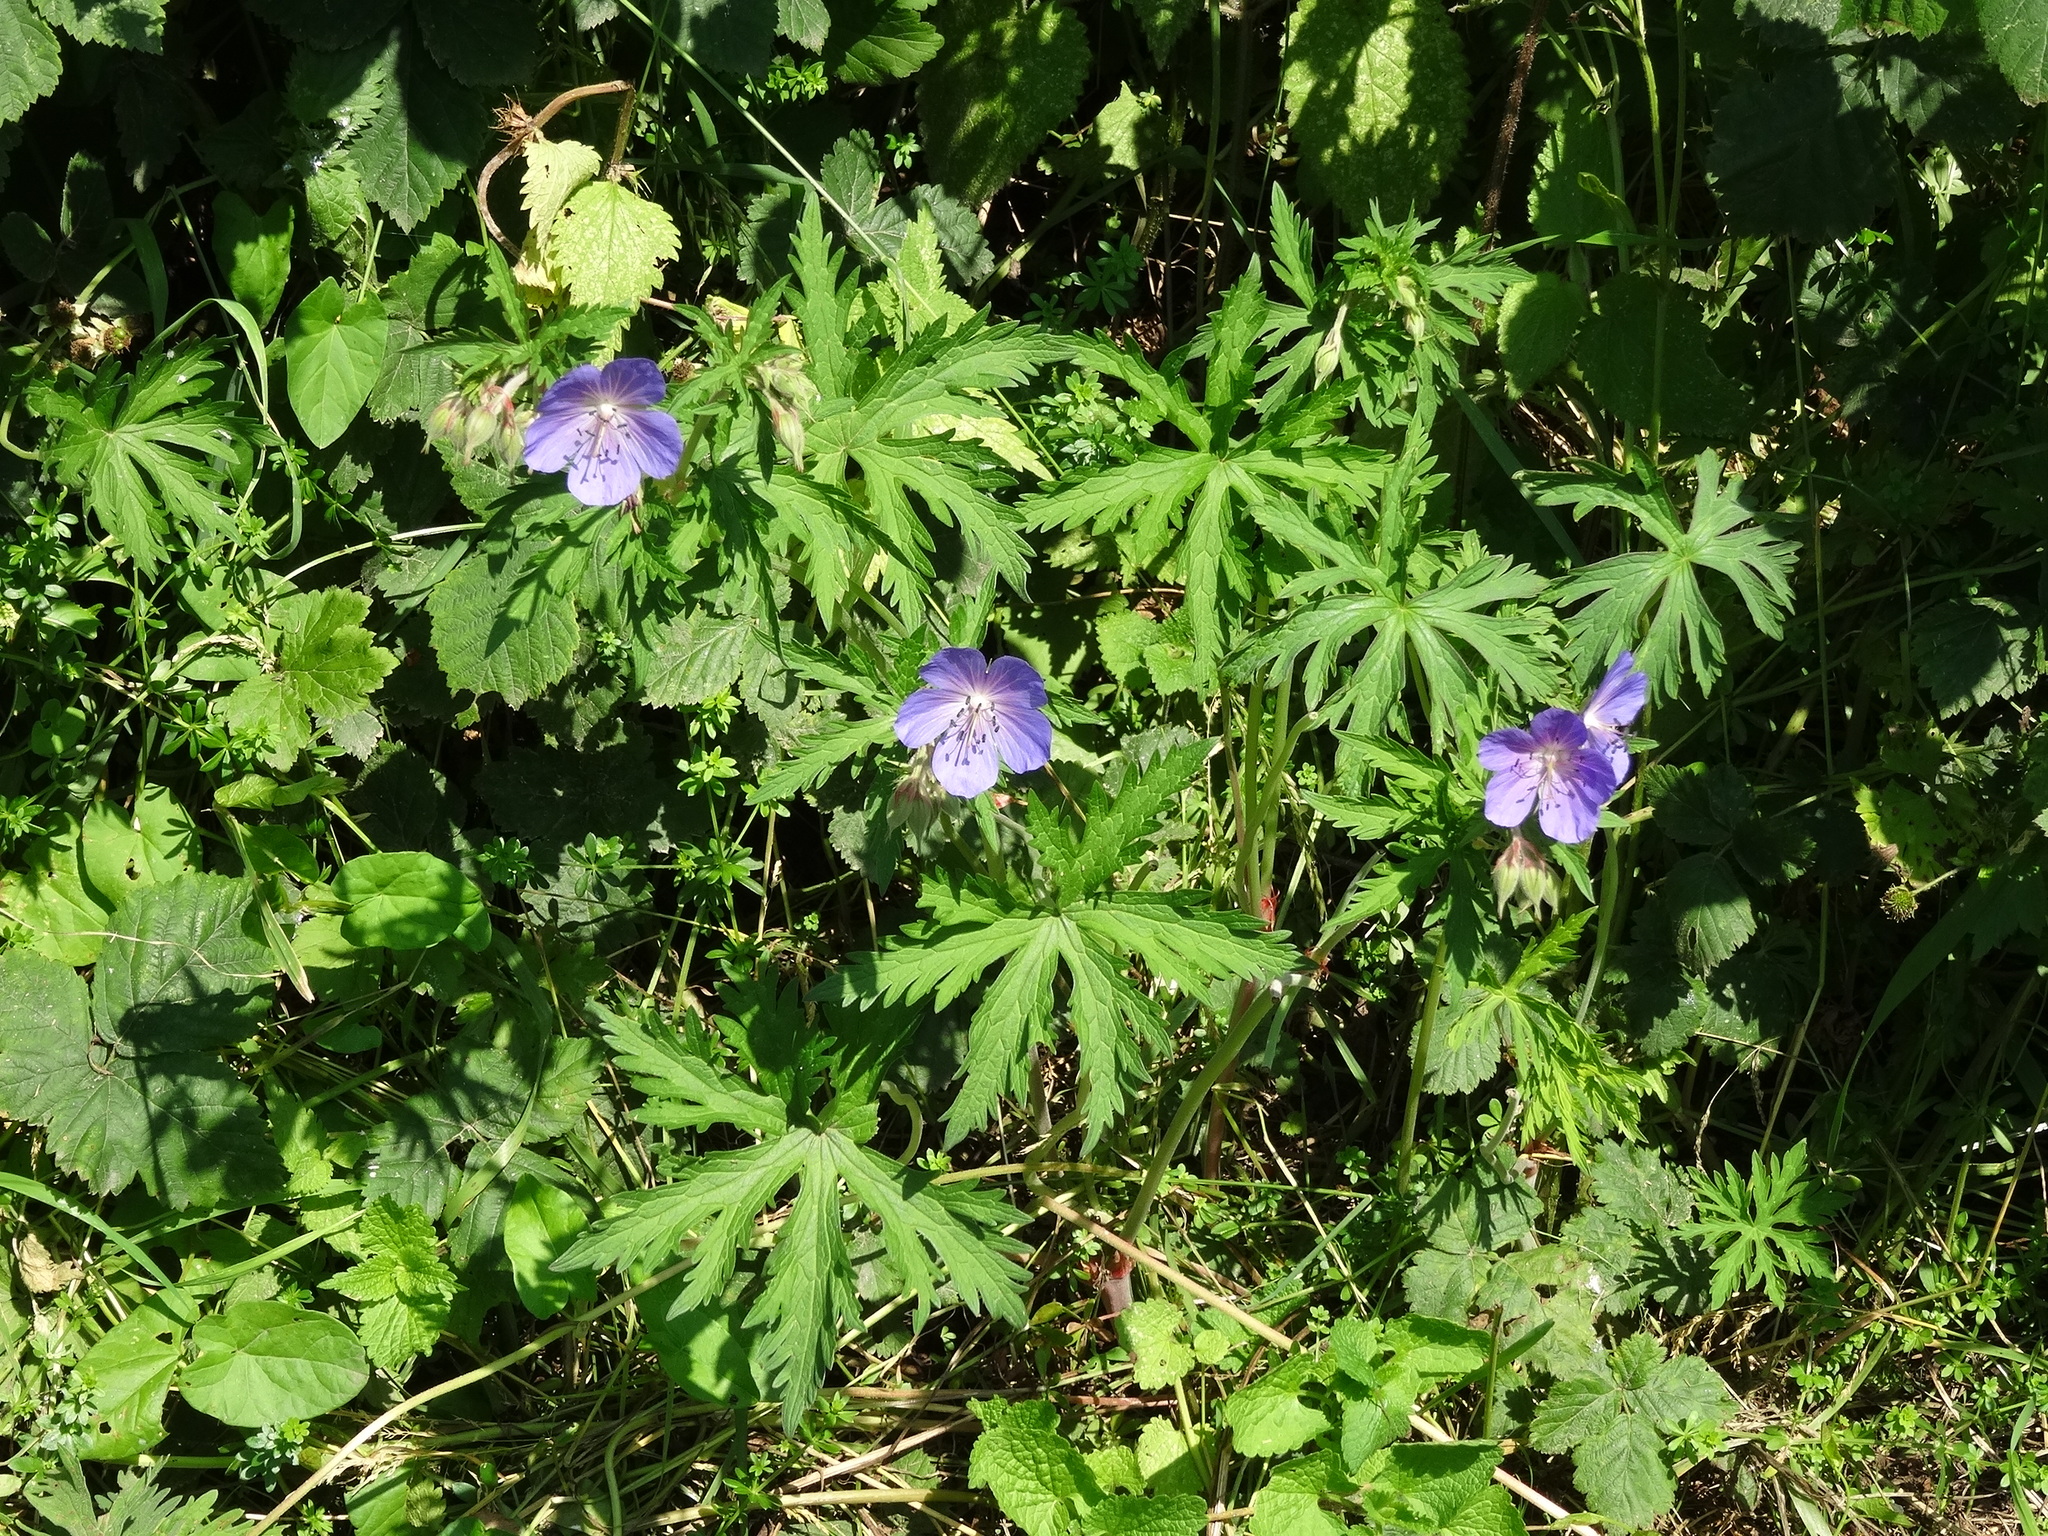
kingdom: Plantae
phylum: Tracheophyta
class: Magnoliopsida
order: Geraniales
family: Geraniaceae
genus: Geranium
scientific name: Geranium pratense
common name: Meadow crane's-bill
